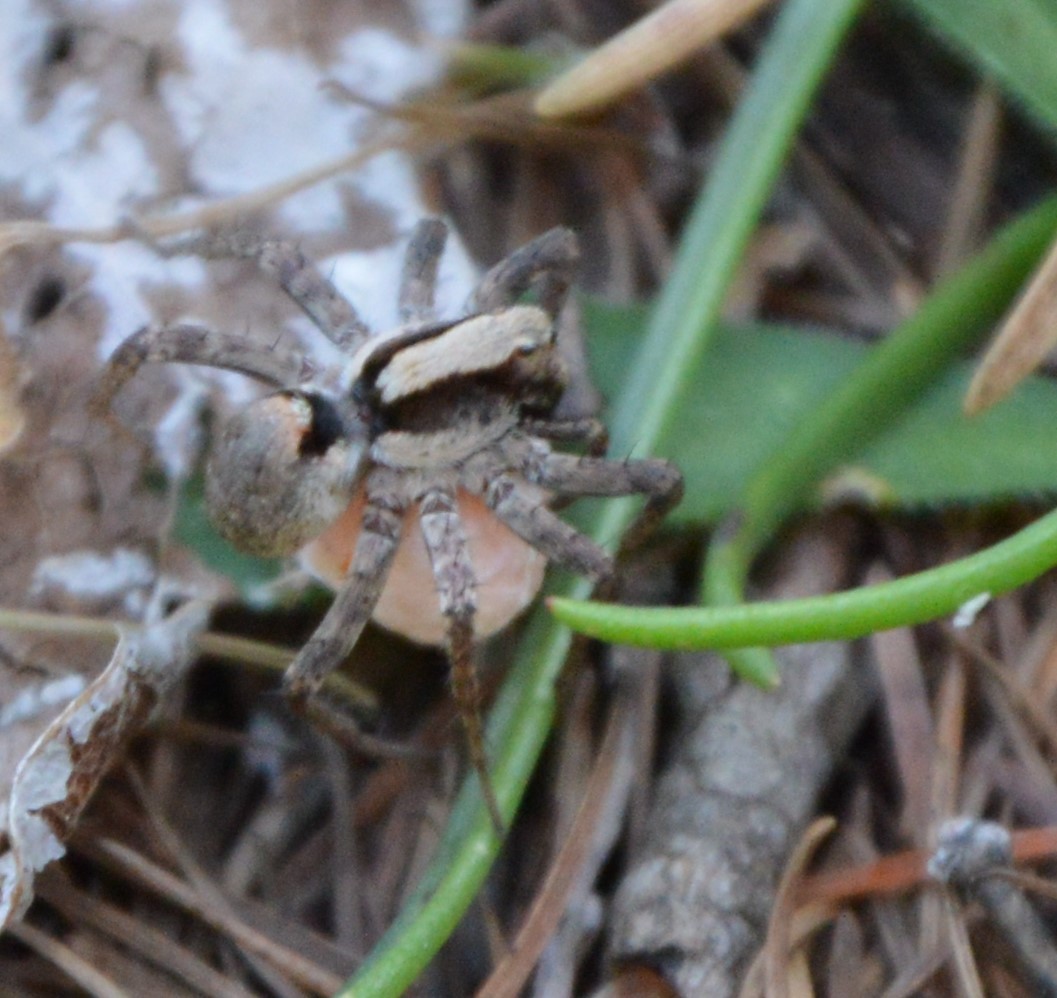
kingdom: Animalia
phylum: Arthropoda
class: Arachnida
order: Araneae
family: Lycosidae
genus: Xerolycosa
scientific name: Xerolycosa nemoralis
